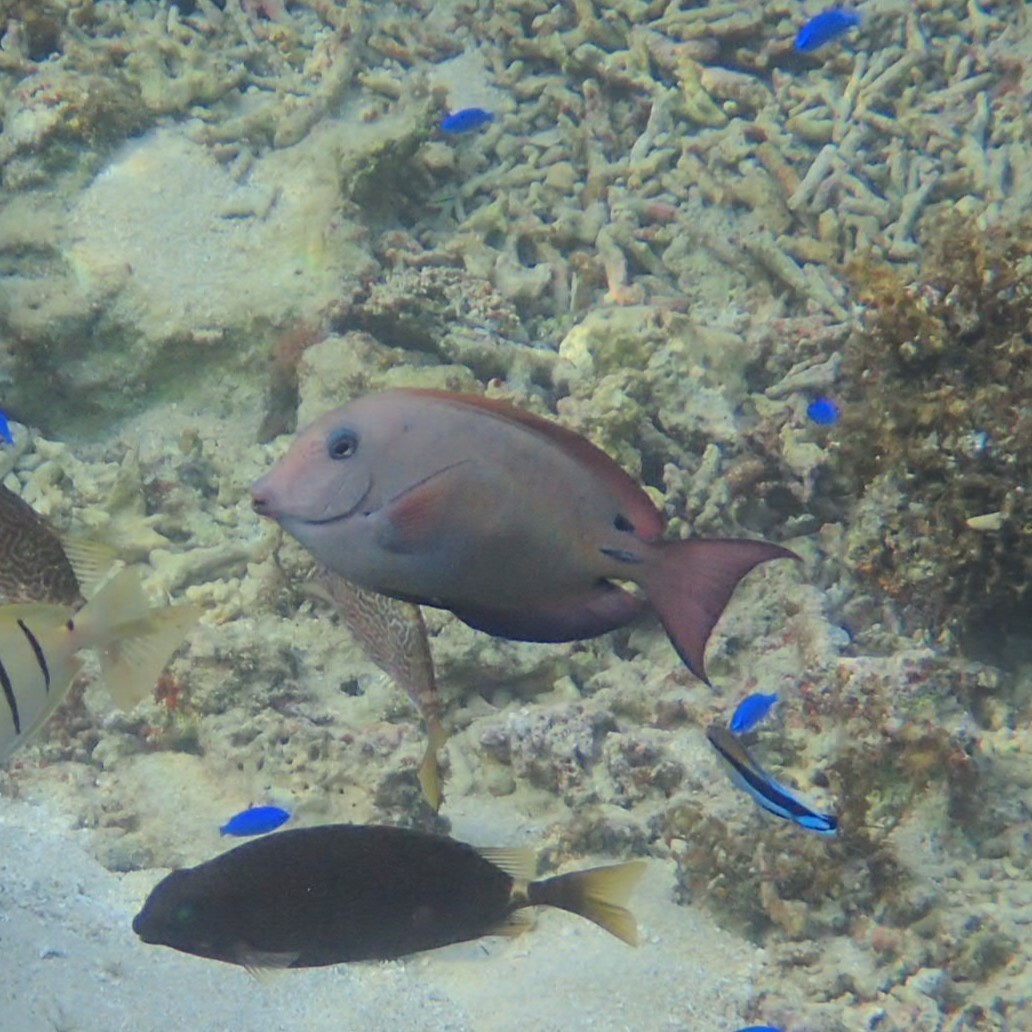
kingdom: Animalia
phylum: Chordata
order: Perciformes
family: Acanthuridae
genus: Acanthurus
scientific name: Acanthurus nigrofuscus
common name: Blackspot surgeonfish
